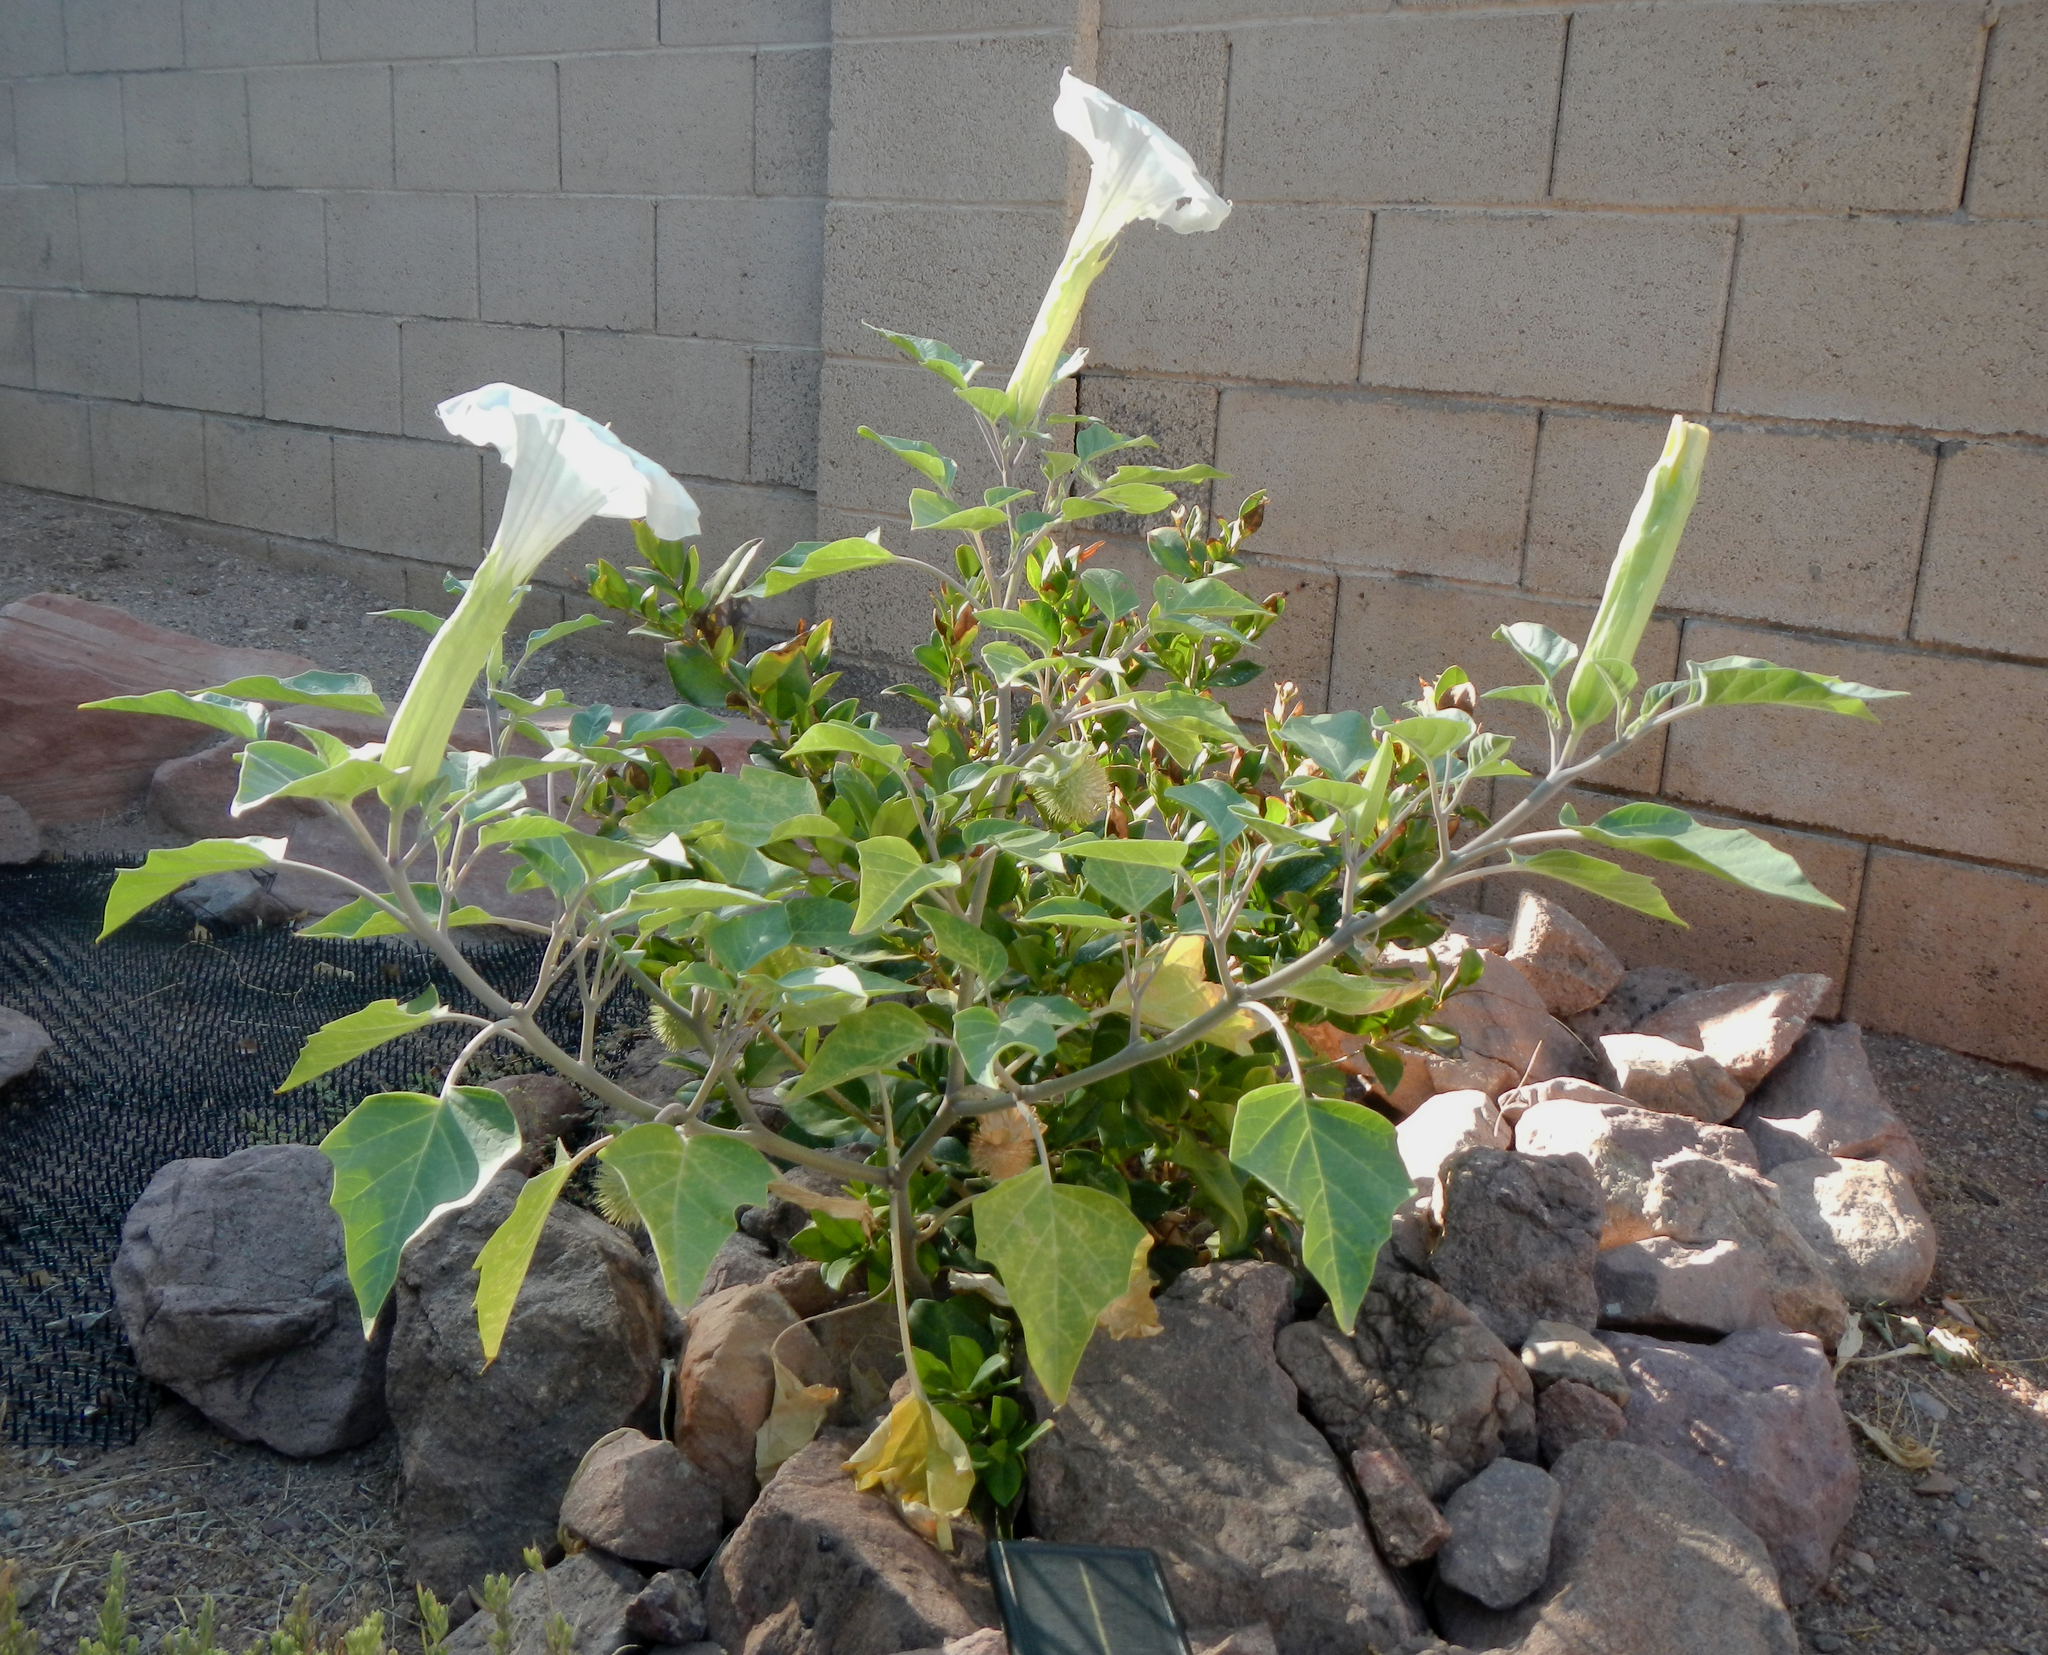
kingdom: Plantae
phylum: Tracheophyta
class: Magnoliopsida
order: Solanales
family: Solanaceae
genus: Datura
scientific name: Datura wrightii
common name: Sacred thorn-apple
